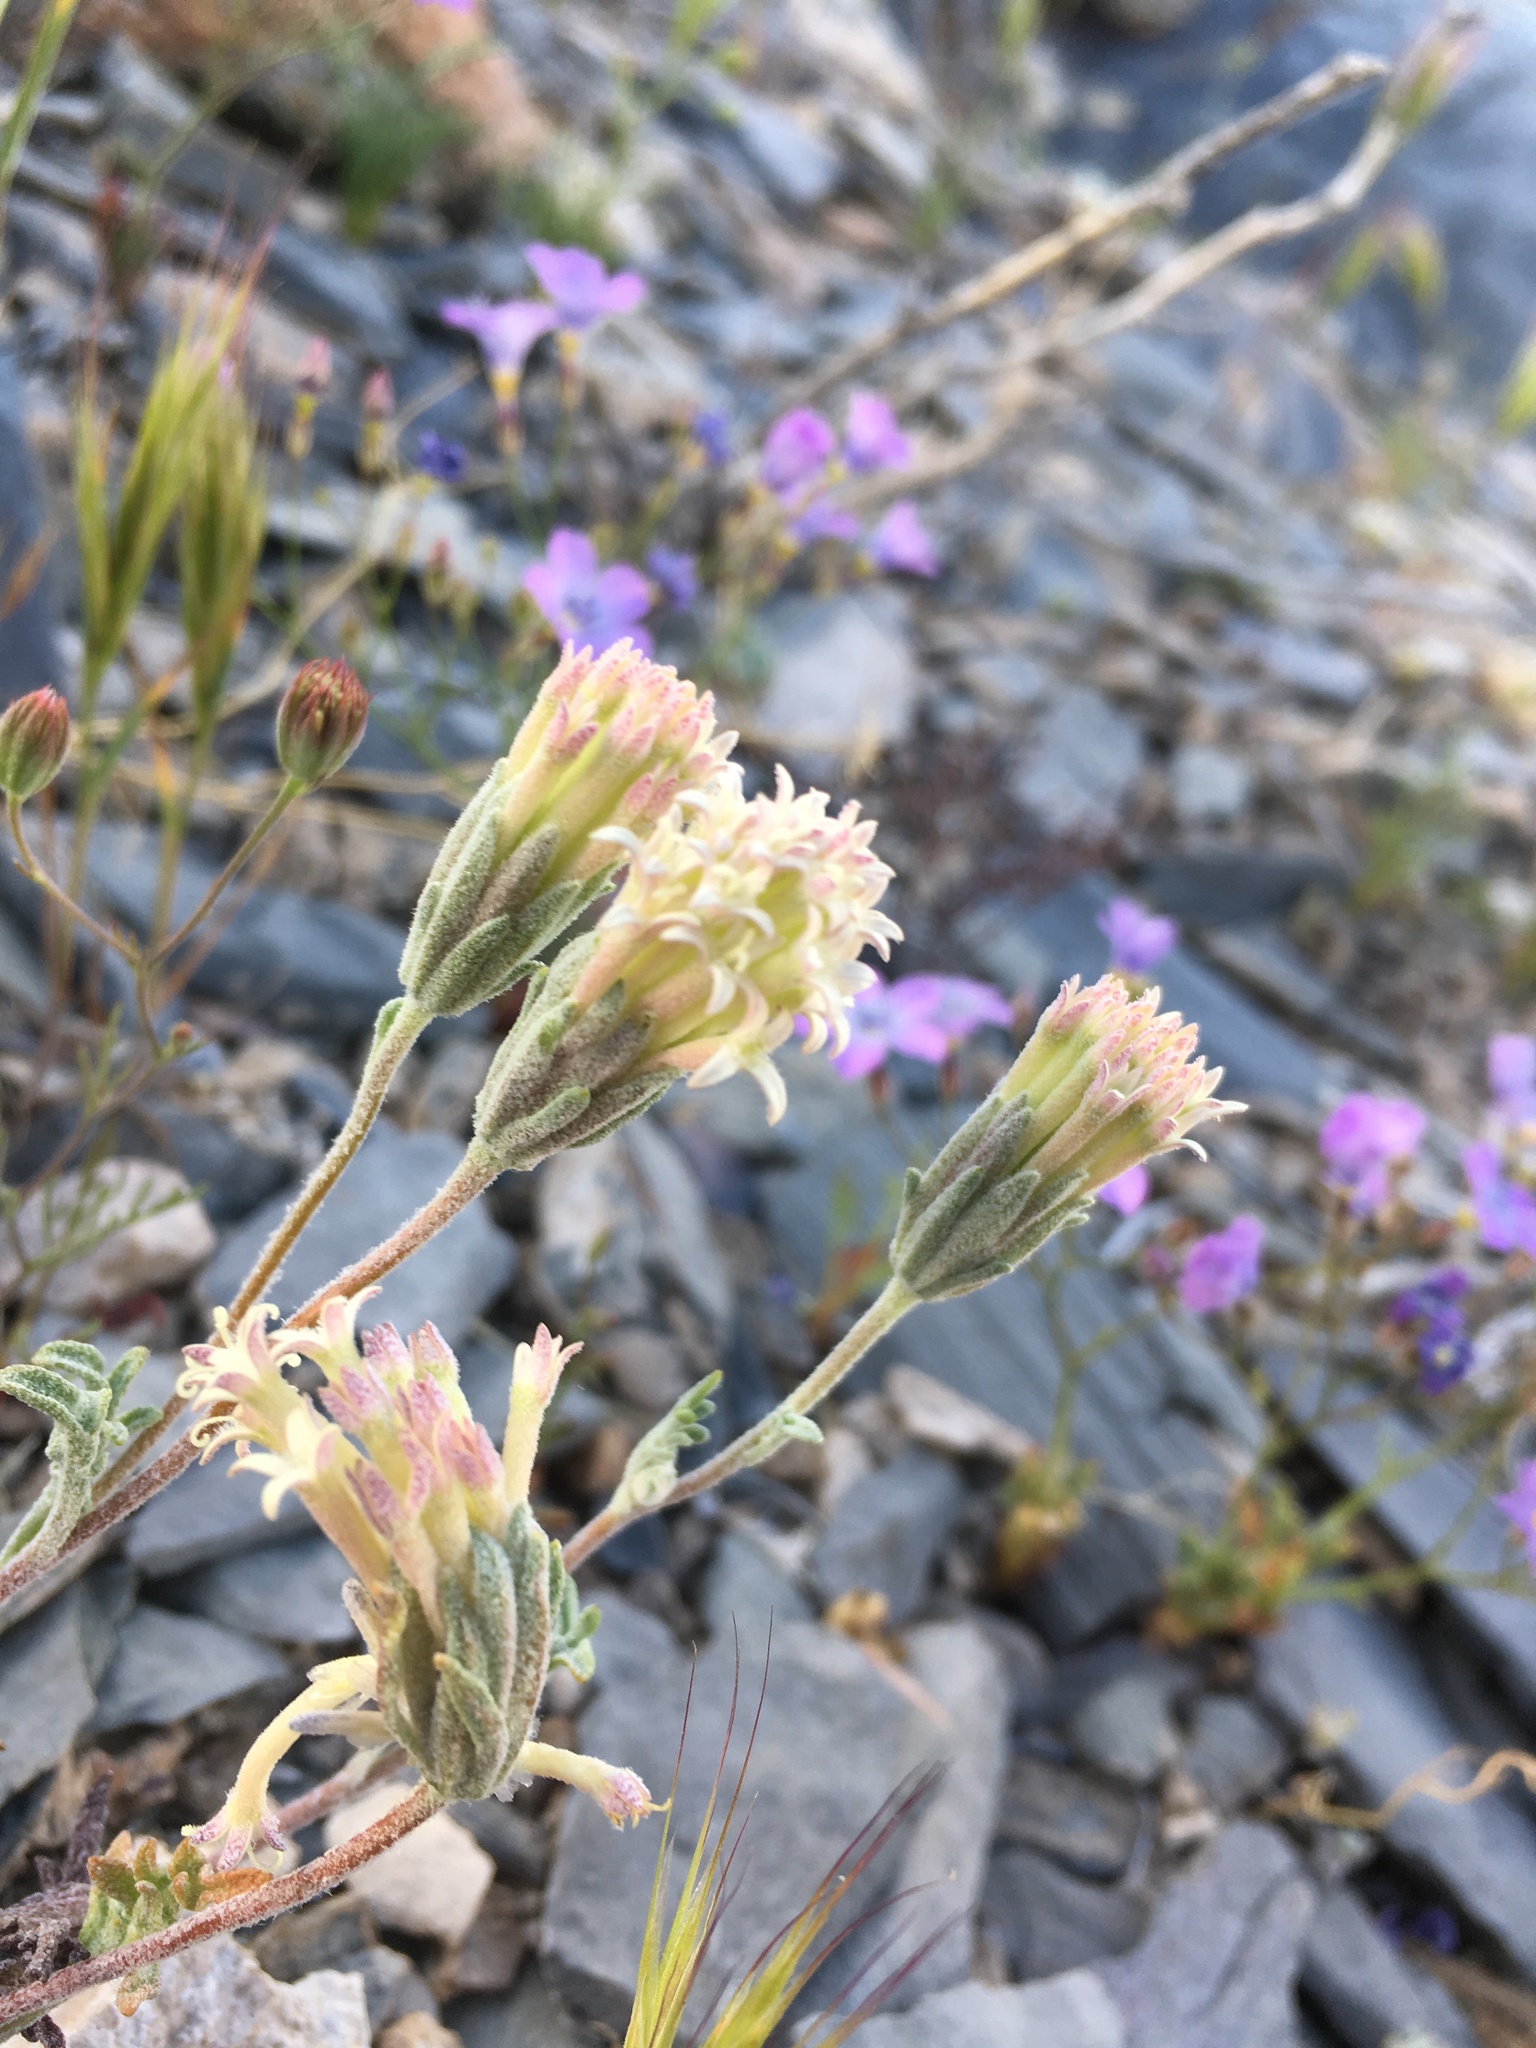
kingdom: Plantae
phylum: Tracheophyta
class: Magnoliopsida
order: Asterales
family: Asteraceae
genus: Chaenactis
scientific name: Chaenactis macrantha
